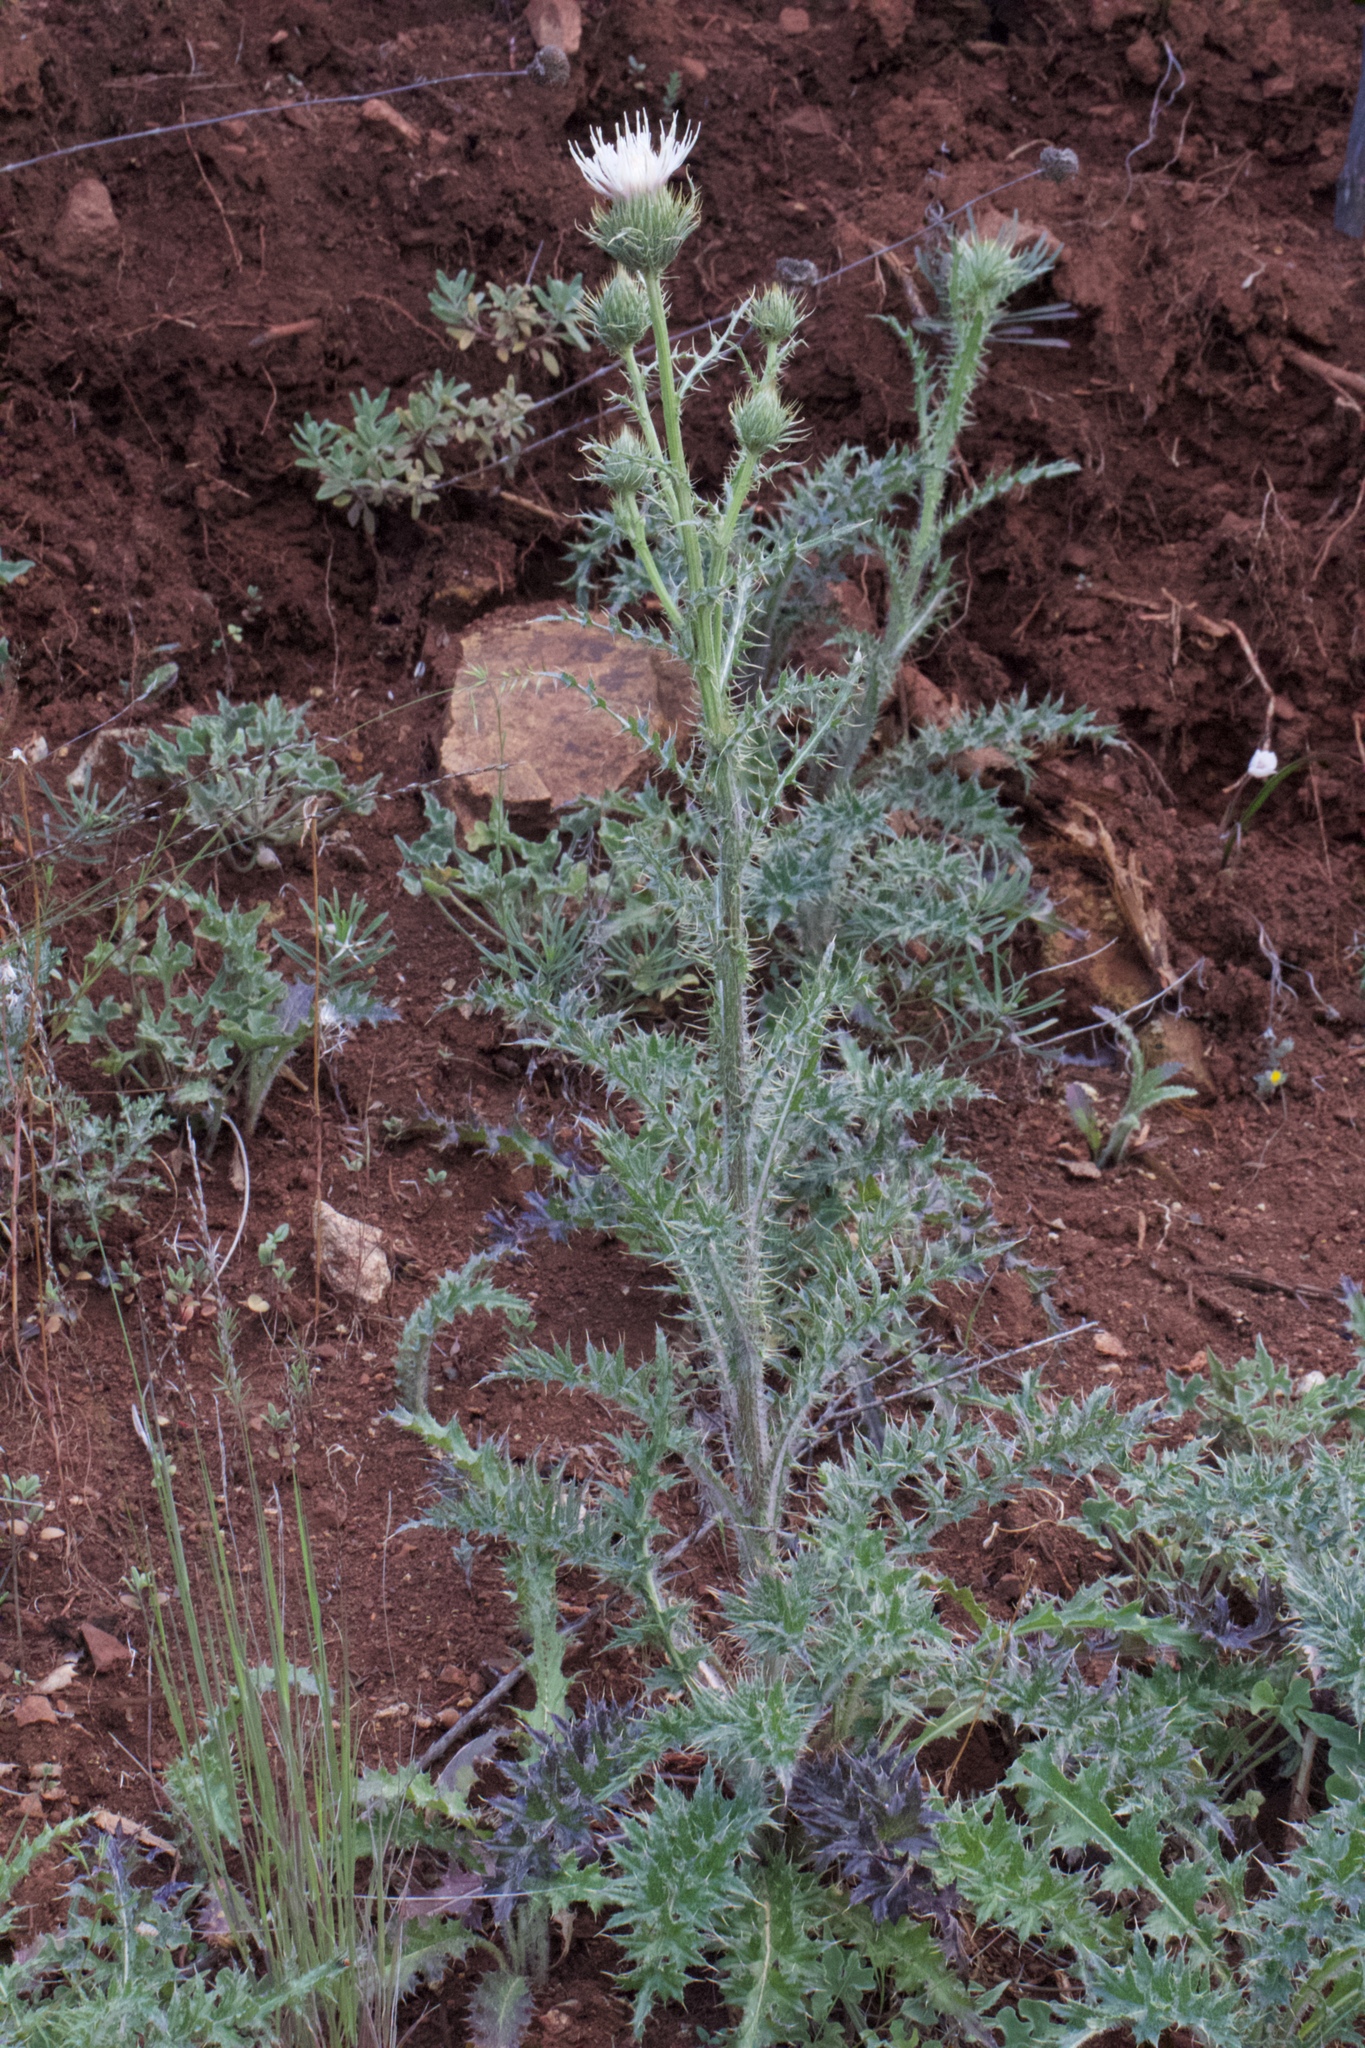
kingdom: Plantae
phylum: Tracheophyta
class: Magnoliopsida
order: Asterales
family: Asteraceae
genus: Cirsium
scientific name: Cirsium cymosum
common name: Peregrine thistle
